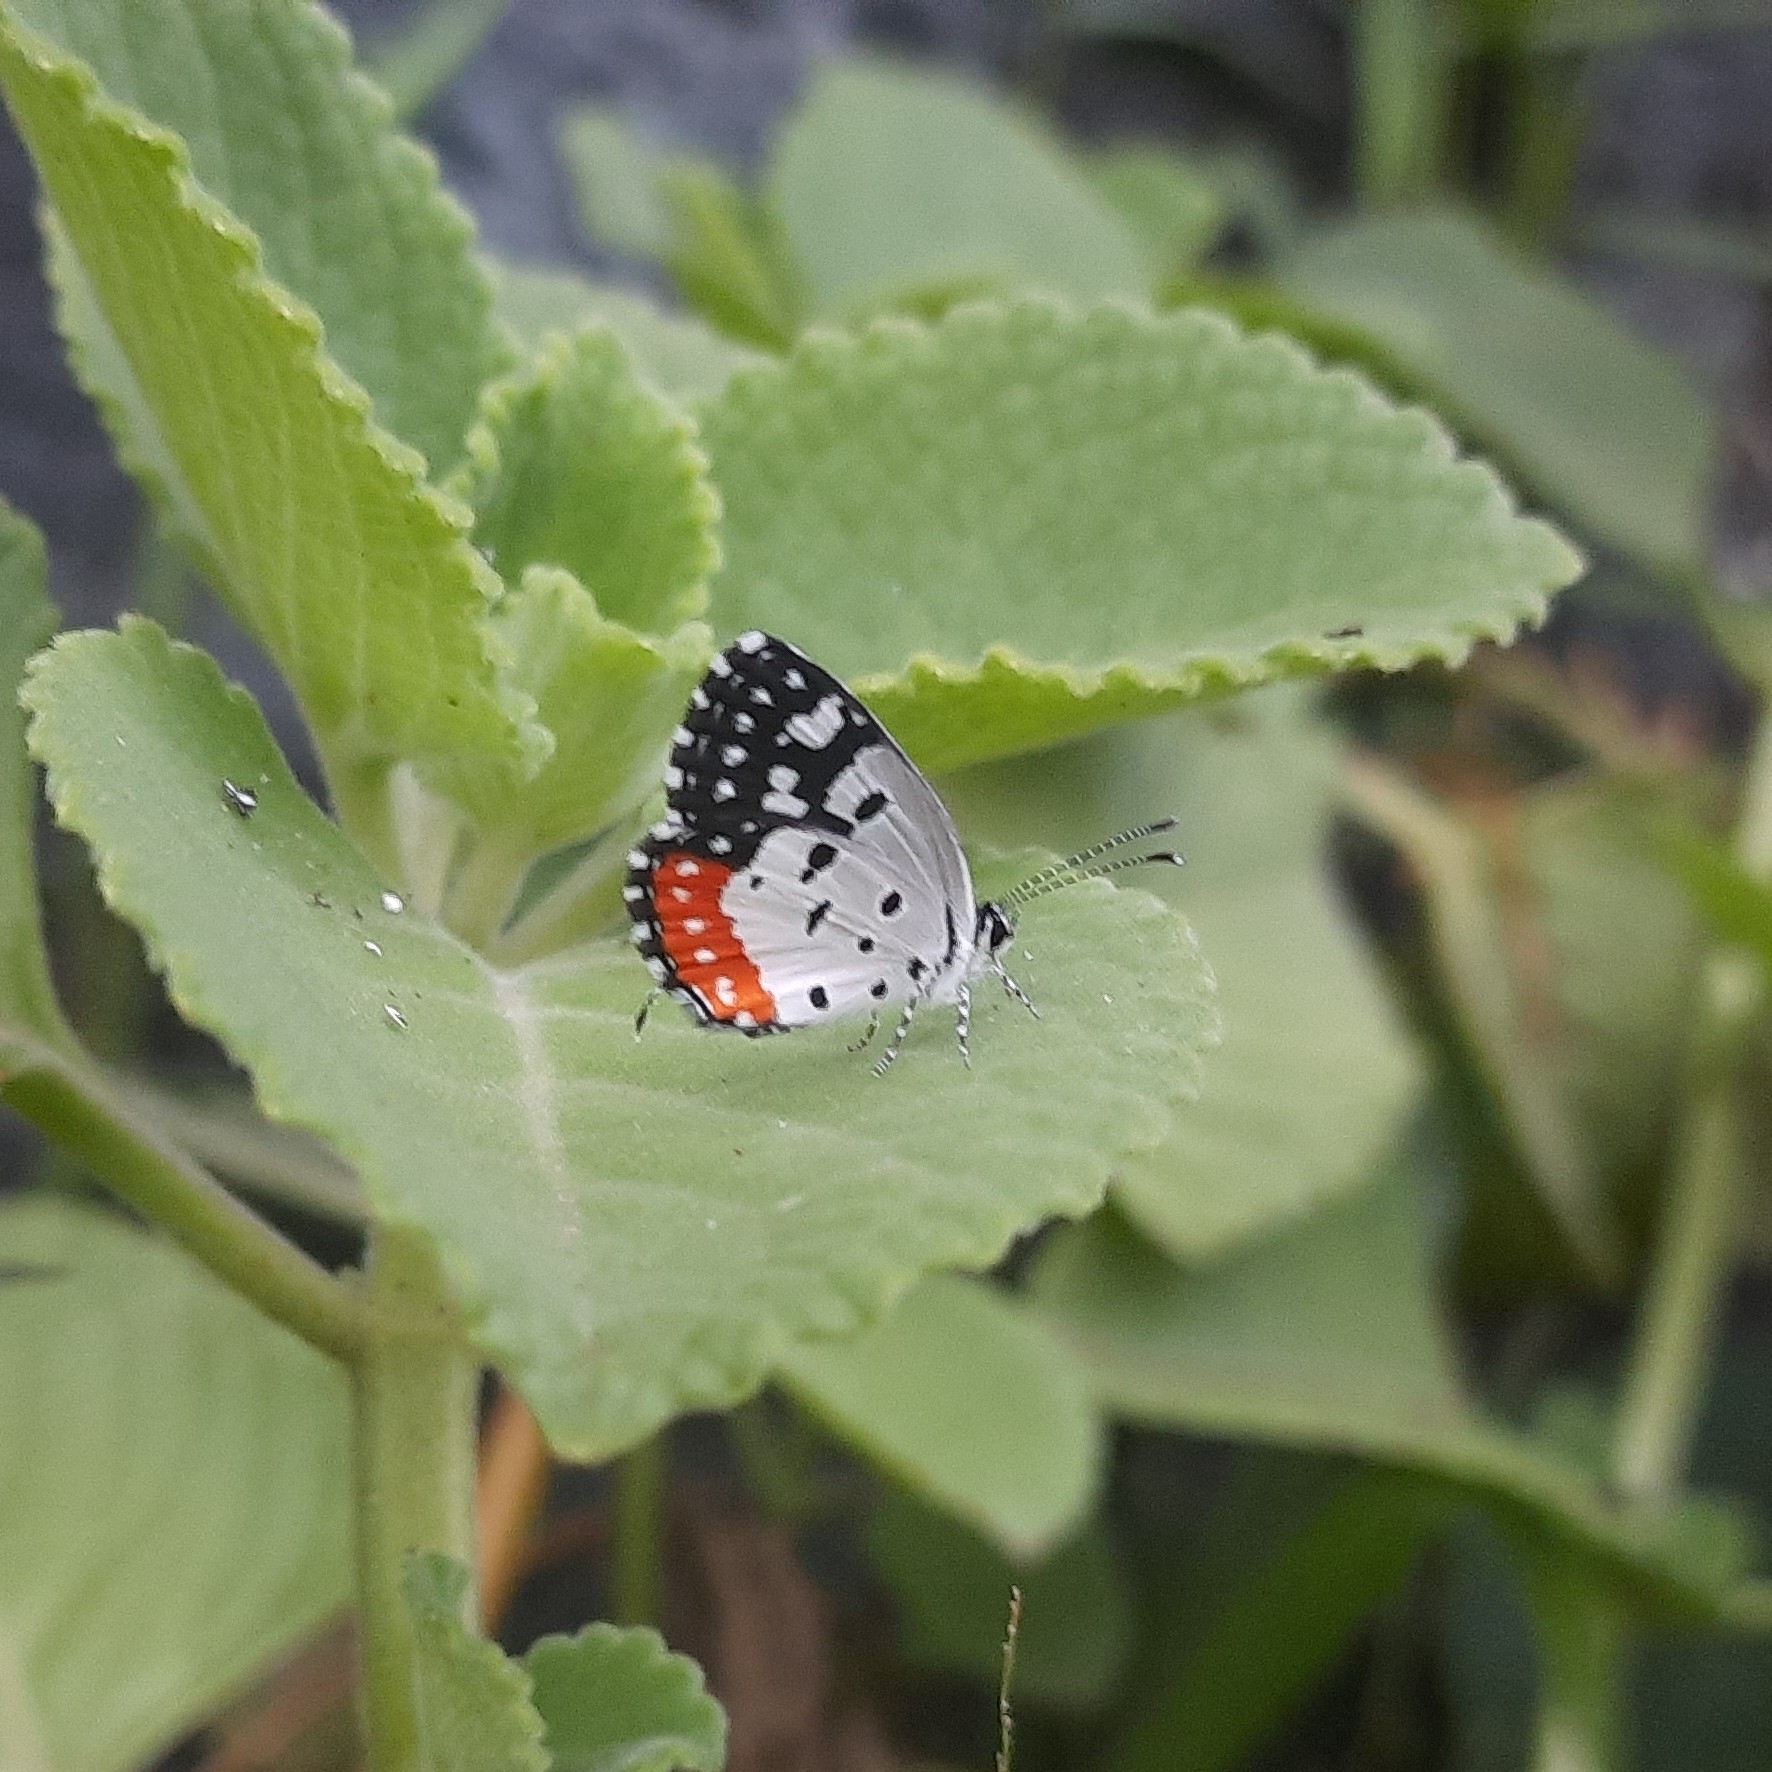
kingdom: Animalia
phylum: Arthropoda
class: Insecta
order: Lepidoptera
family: Lycaenidae
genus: Talicada
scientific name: Talicada nyseus
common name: Red pierrot
